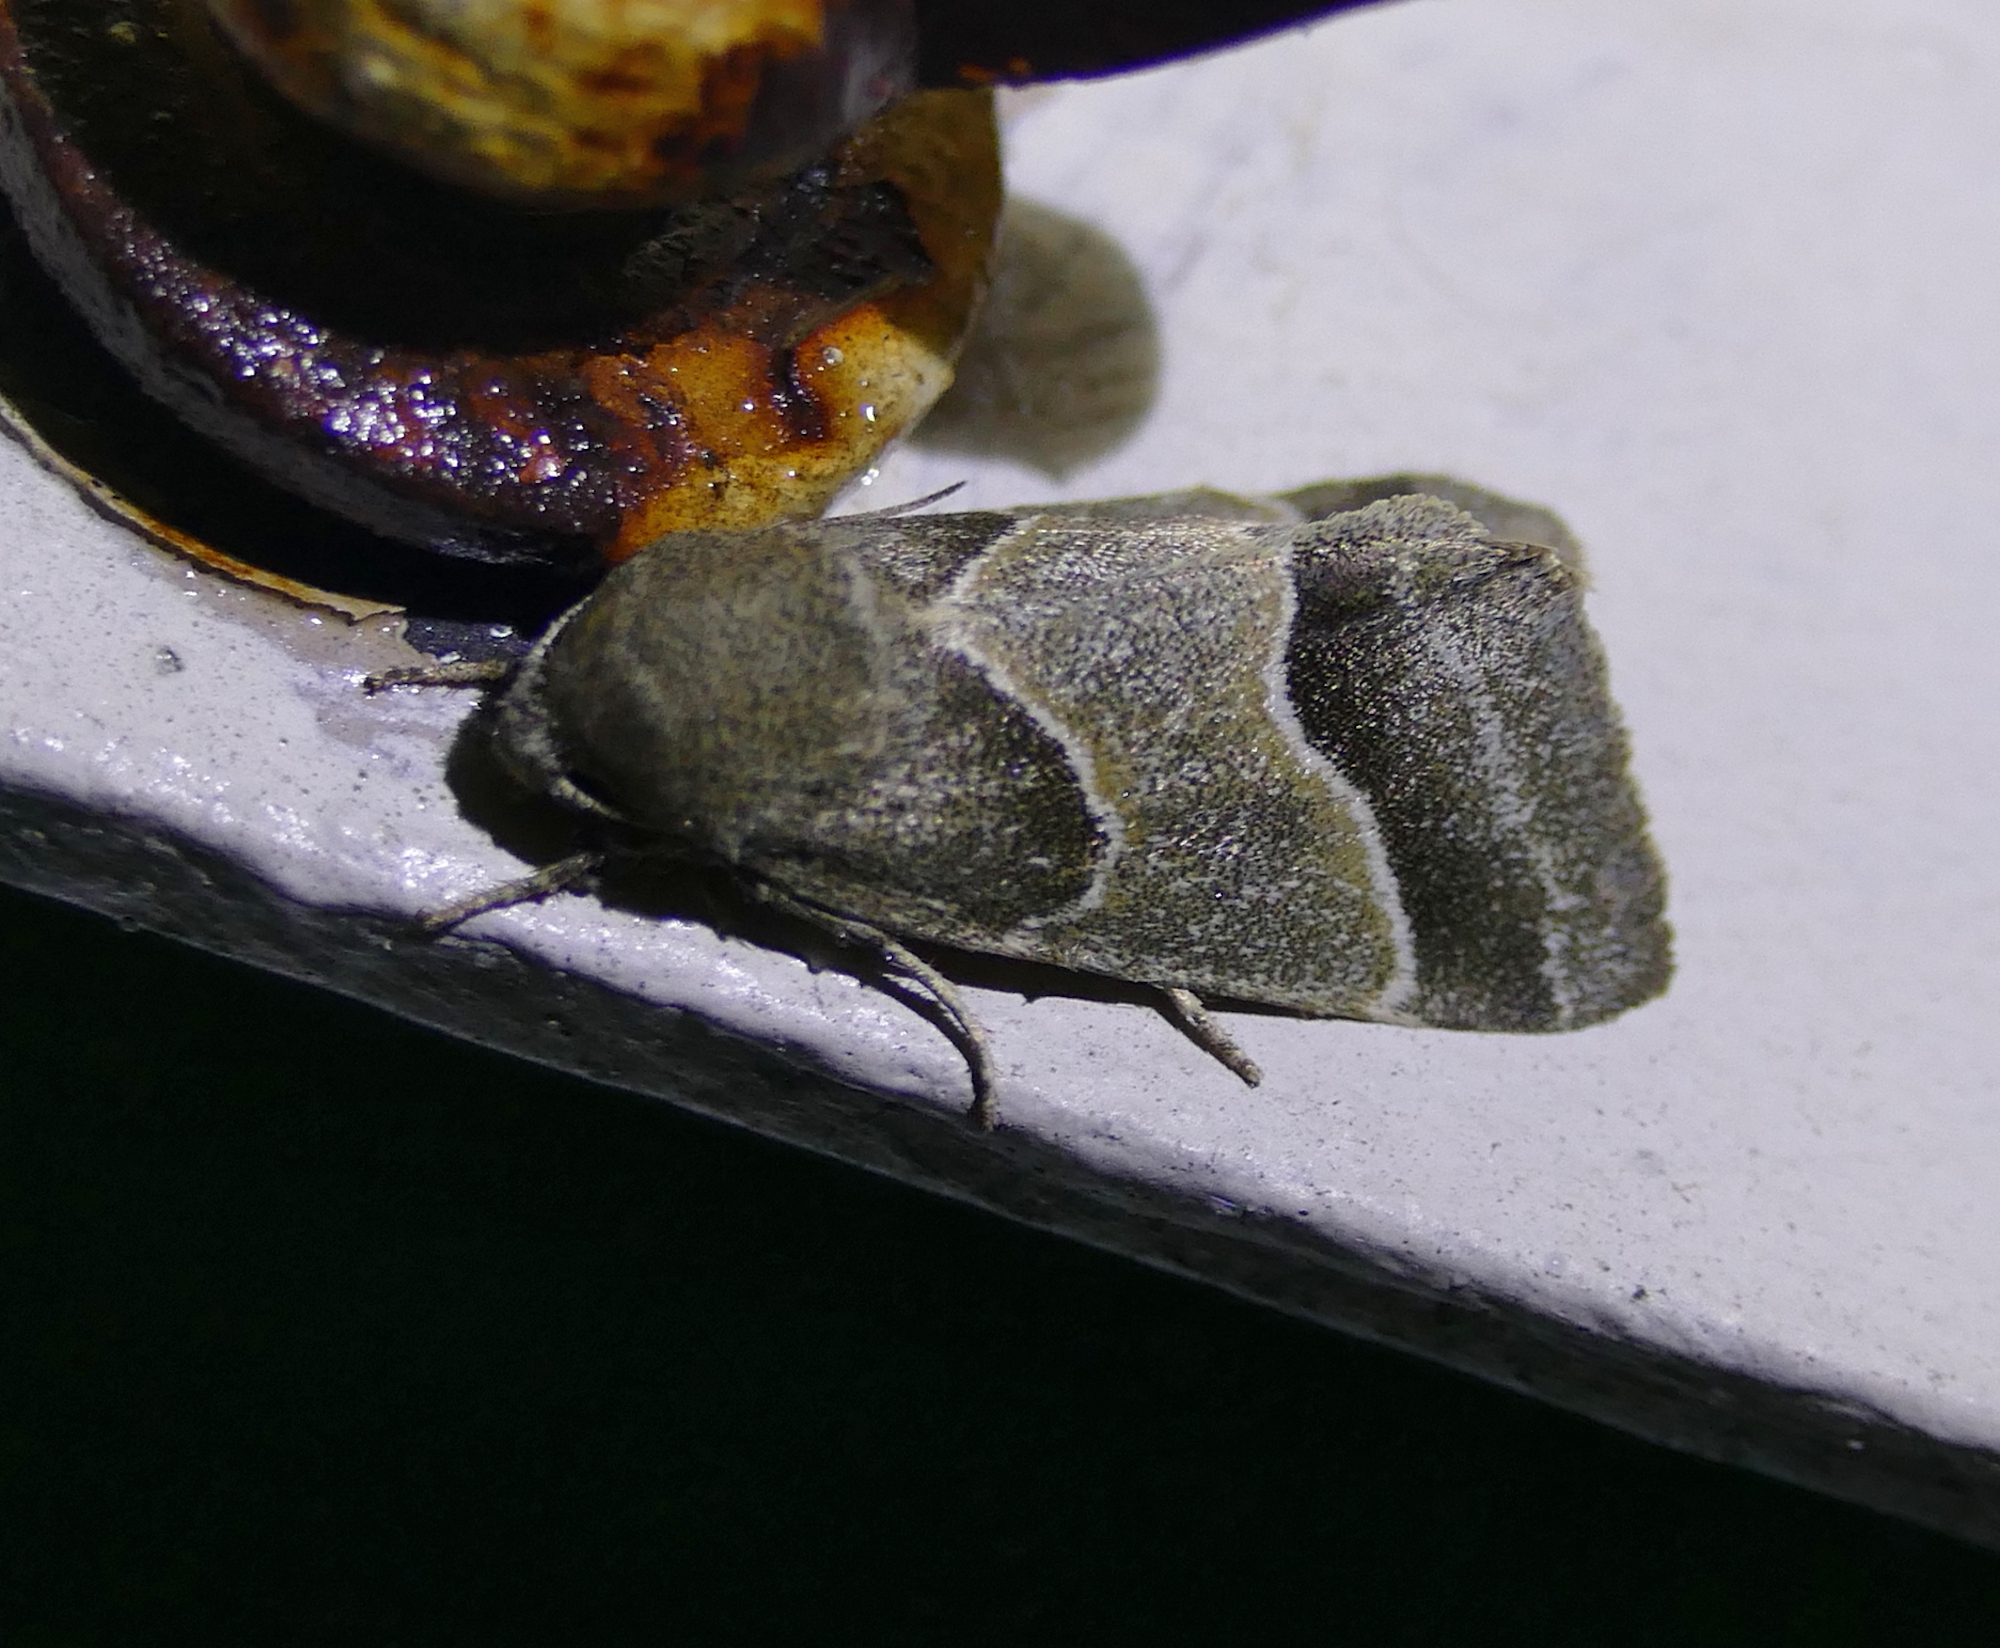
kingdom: Animalia
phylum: Arthropoda
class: Insecta
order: Lepidoptera
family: Noctuidae
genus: Schinia
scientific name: Schinia rivulosa
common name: Scarce meal-moth
